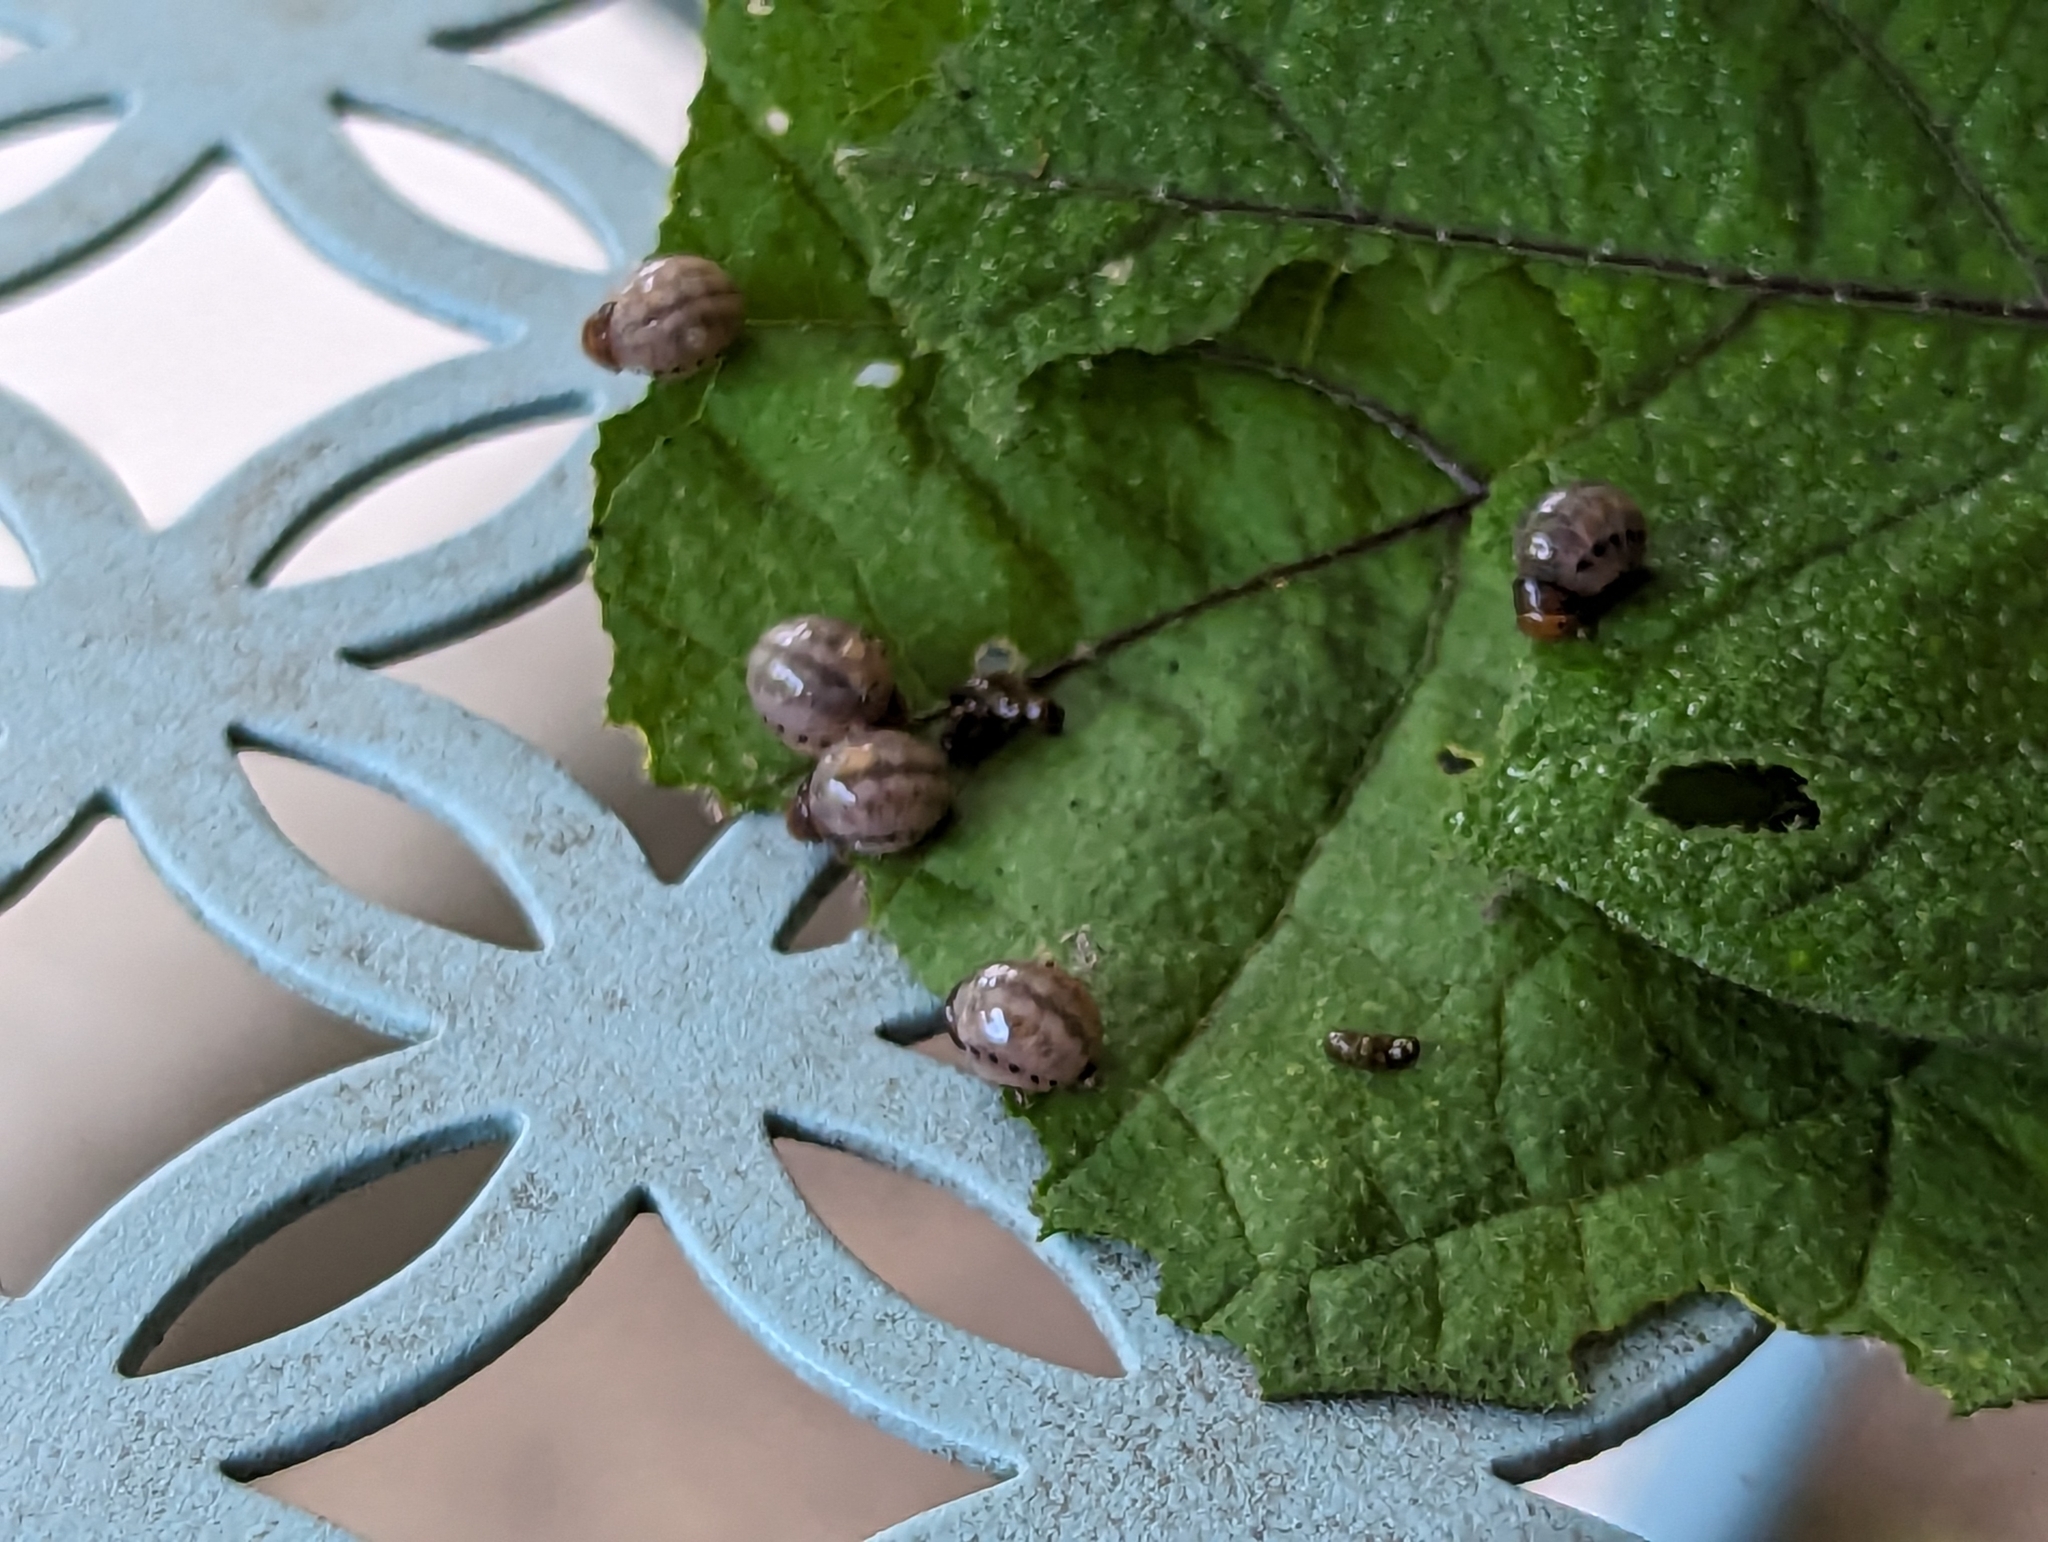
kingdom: Animalia
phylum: Arthropoda
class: Insecta
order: Coleoptera
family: Chrysomelidae
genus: Leptinotarsa
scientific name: Leptinotarsa juncta
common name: False potato beetle
